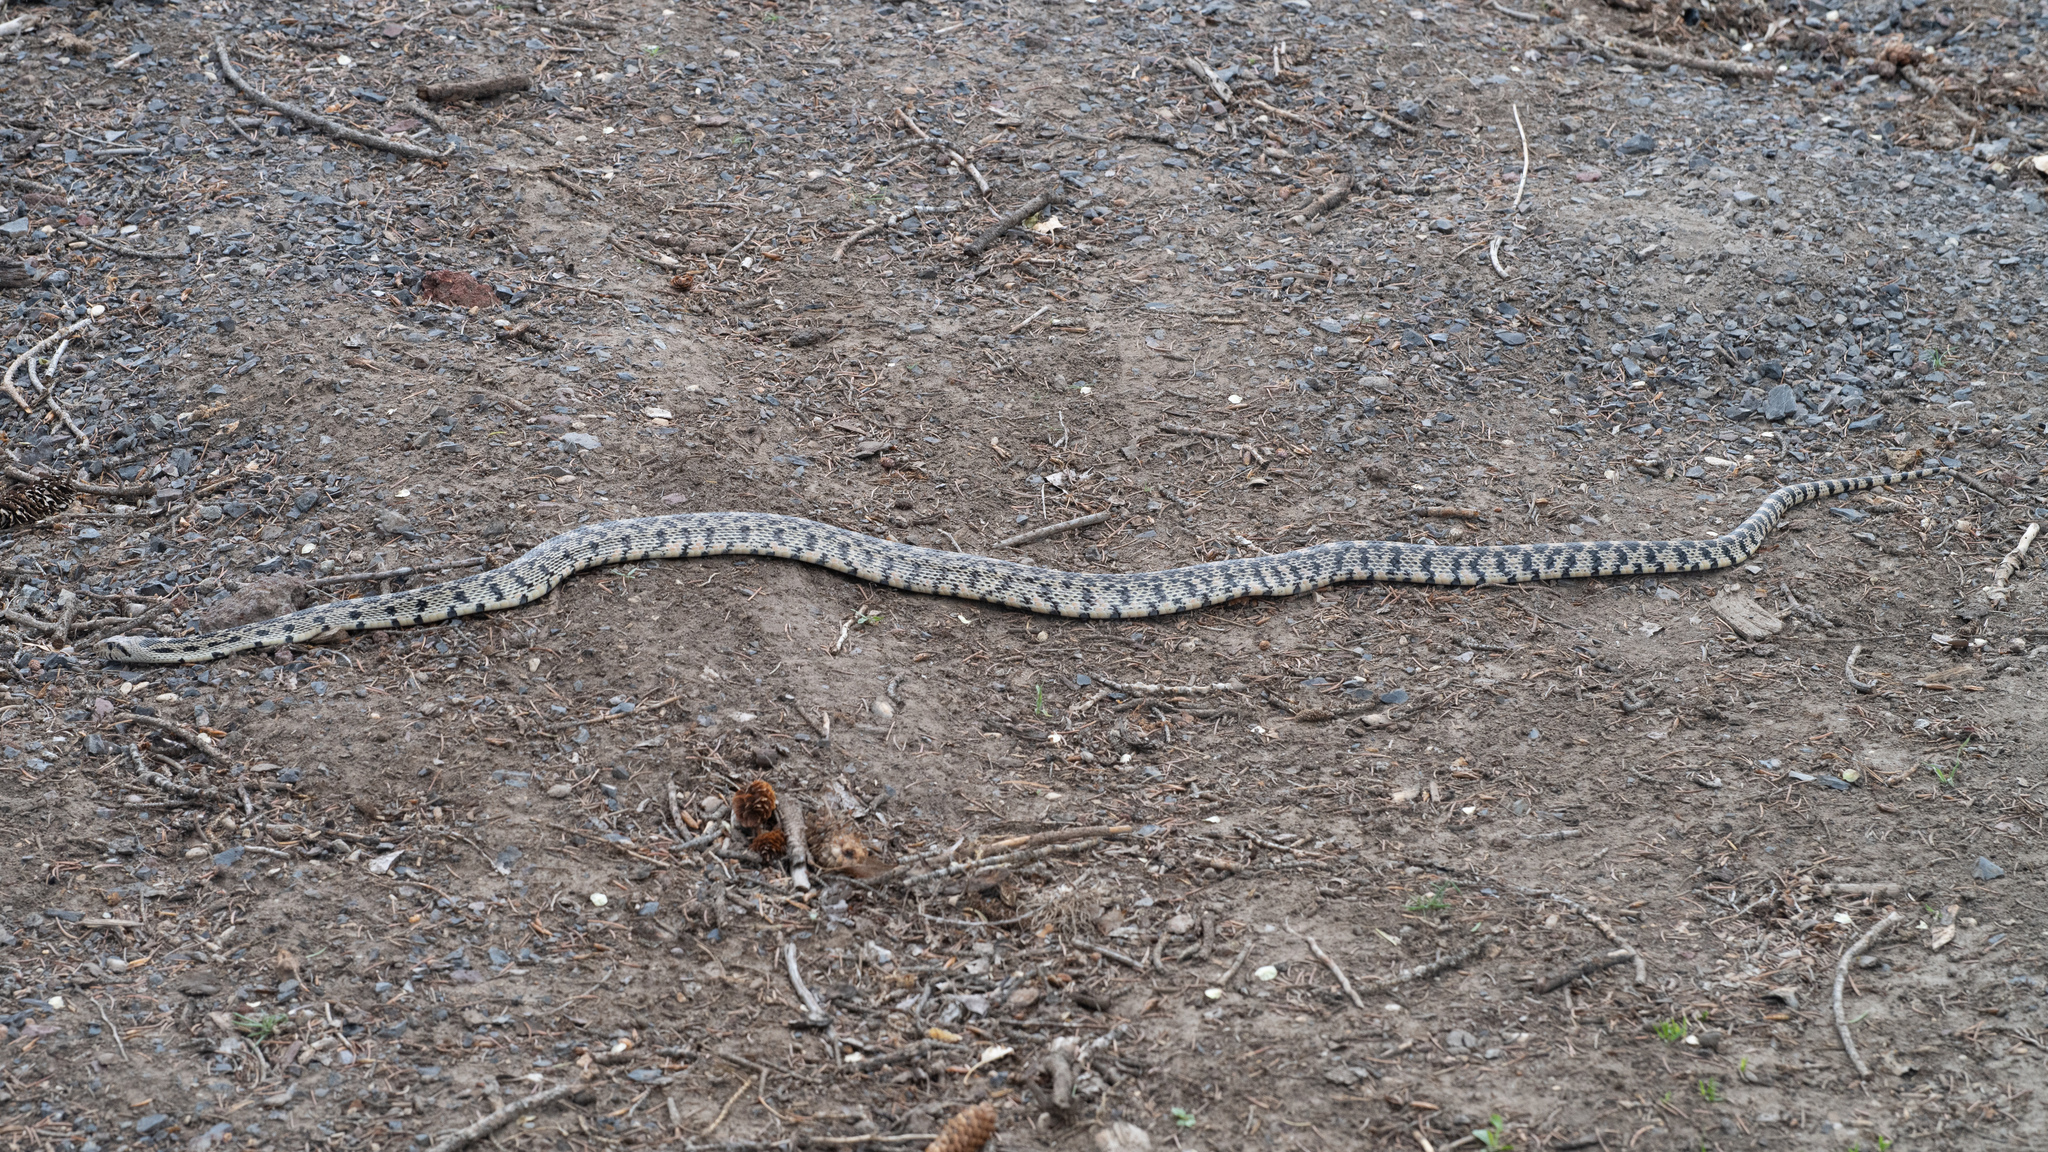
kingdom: Animalia
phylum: Chordata
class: Squamata
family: Colubridae
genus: Pituophis
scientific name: Pituophis catenifer
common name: Gopher snake
